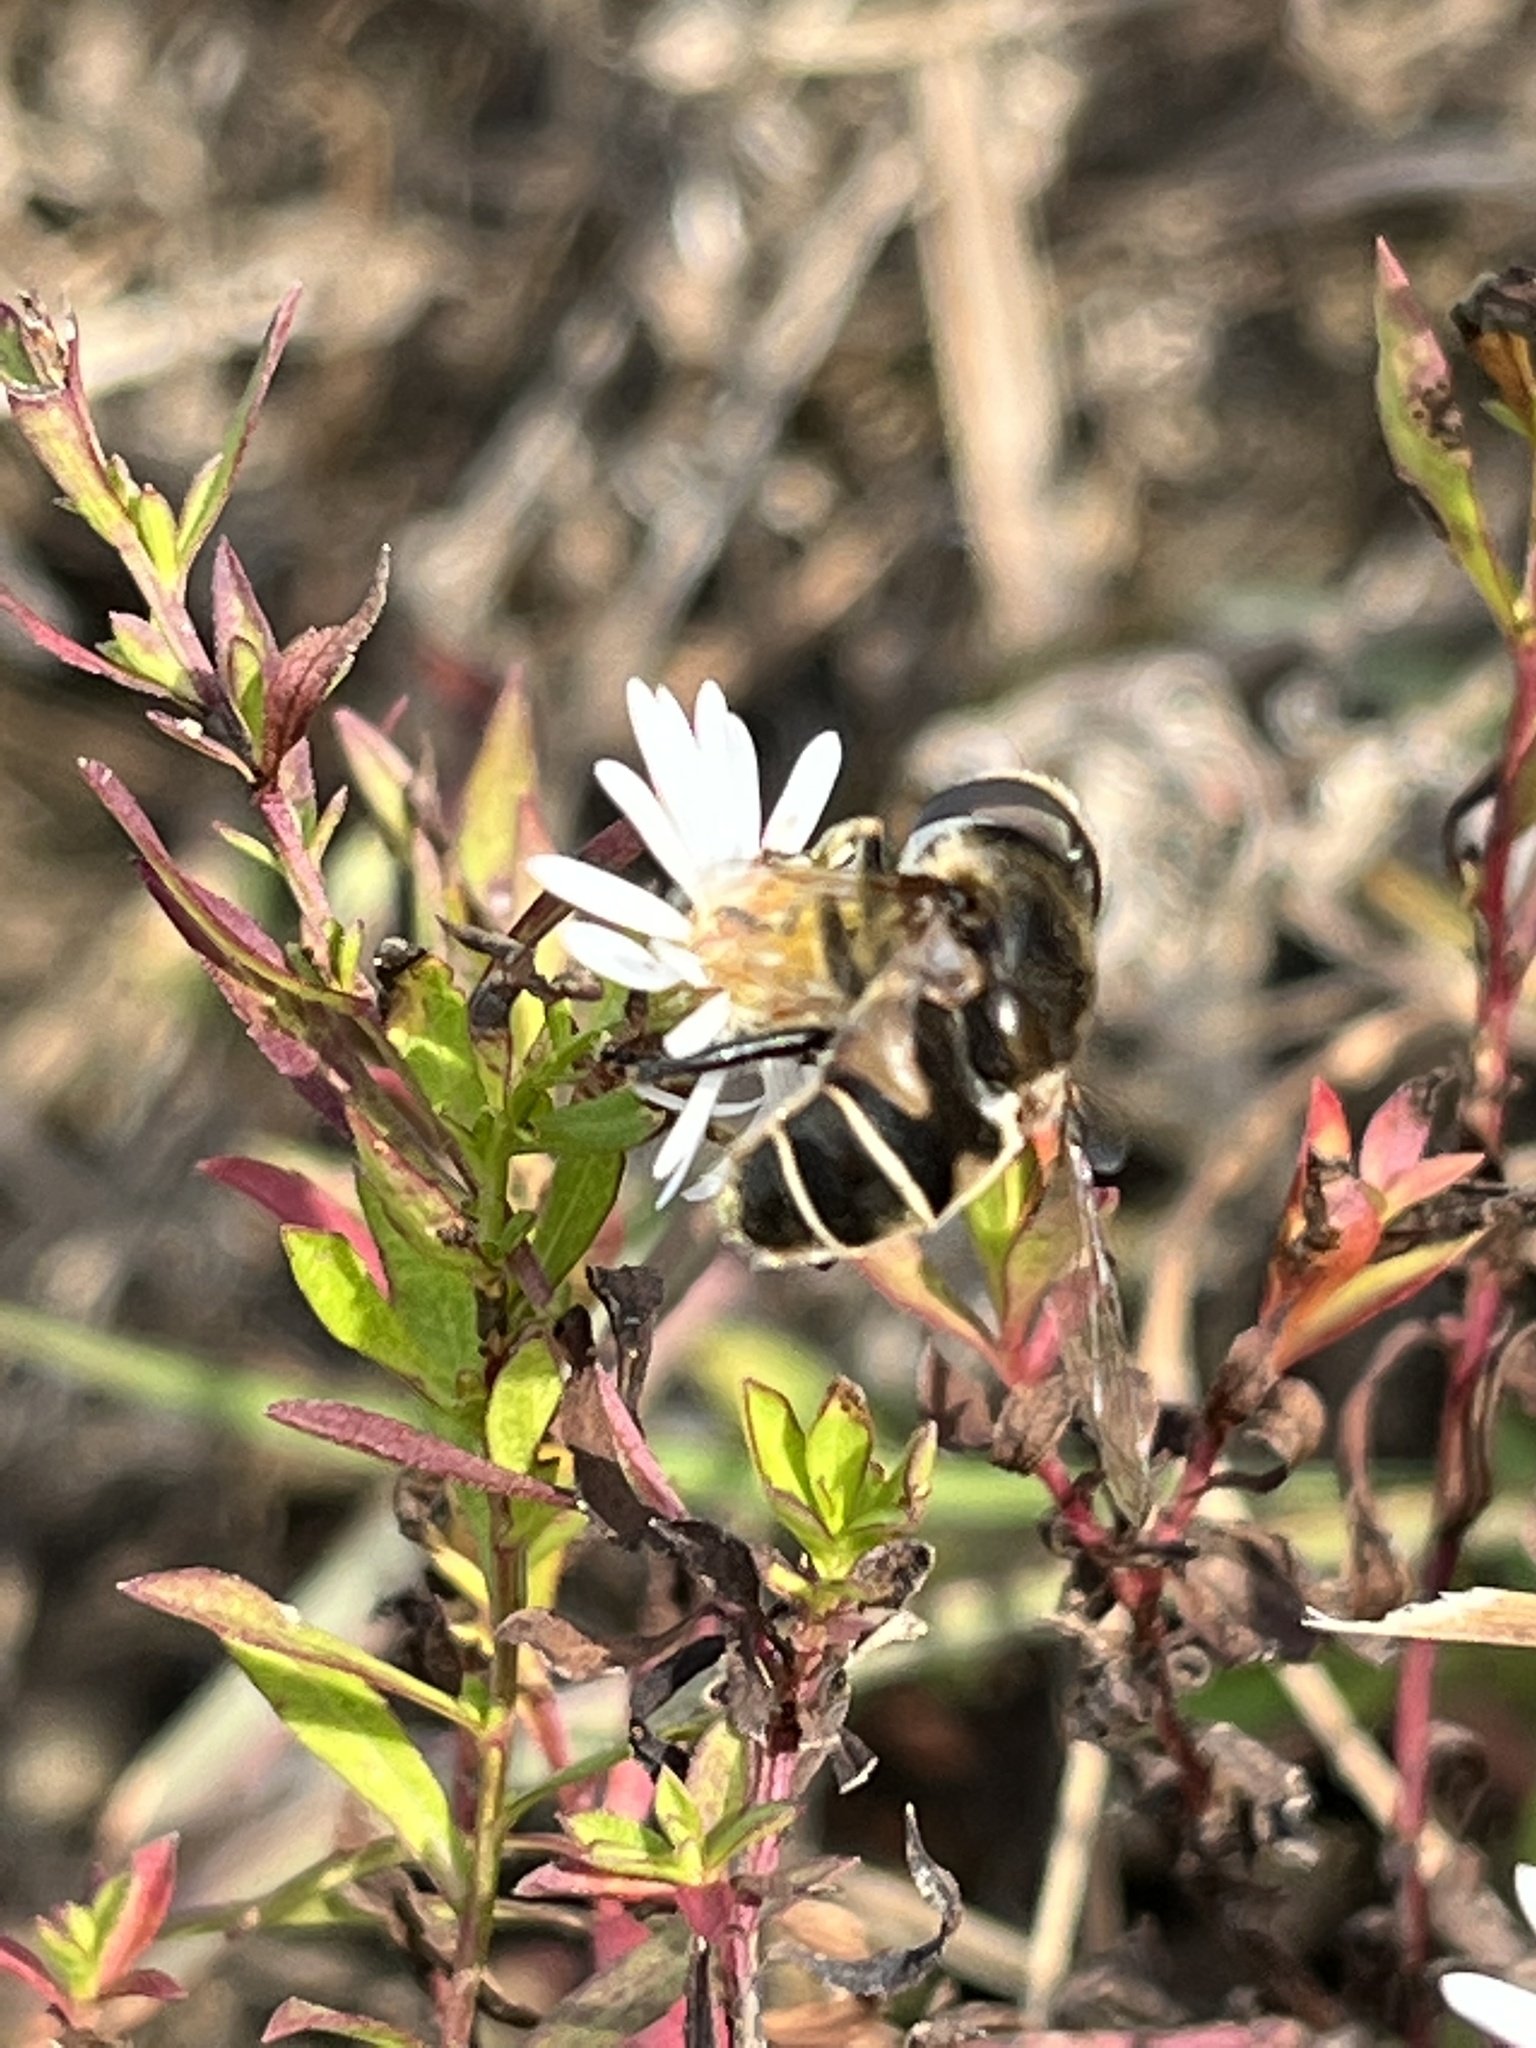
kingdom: Animalia
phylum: Arthropoda
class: Insecta
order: Diptera
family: Syrphidae
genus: Eristalis
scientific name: Eristalis dimidiata
